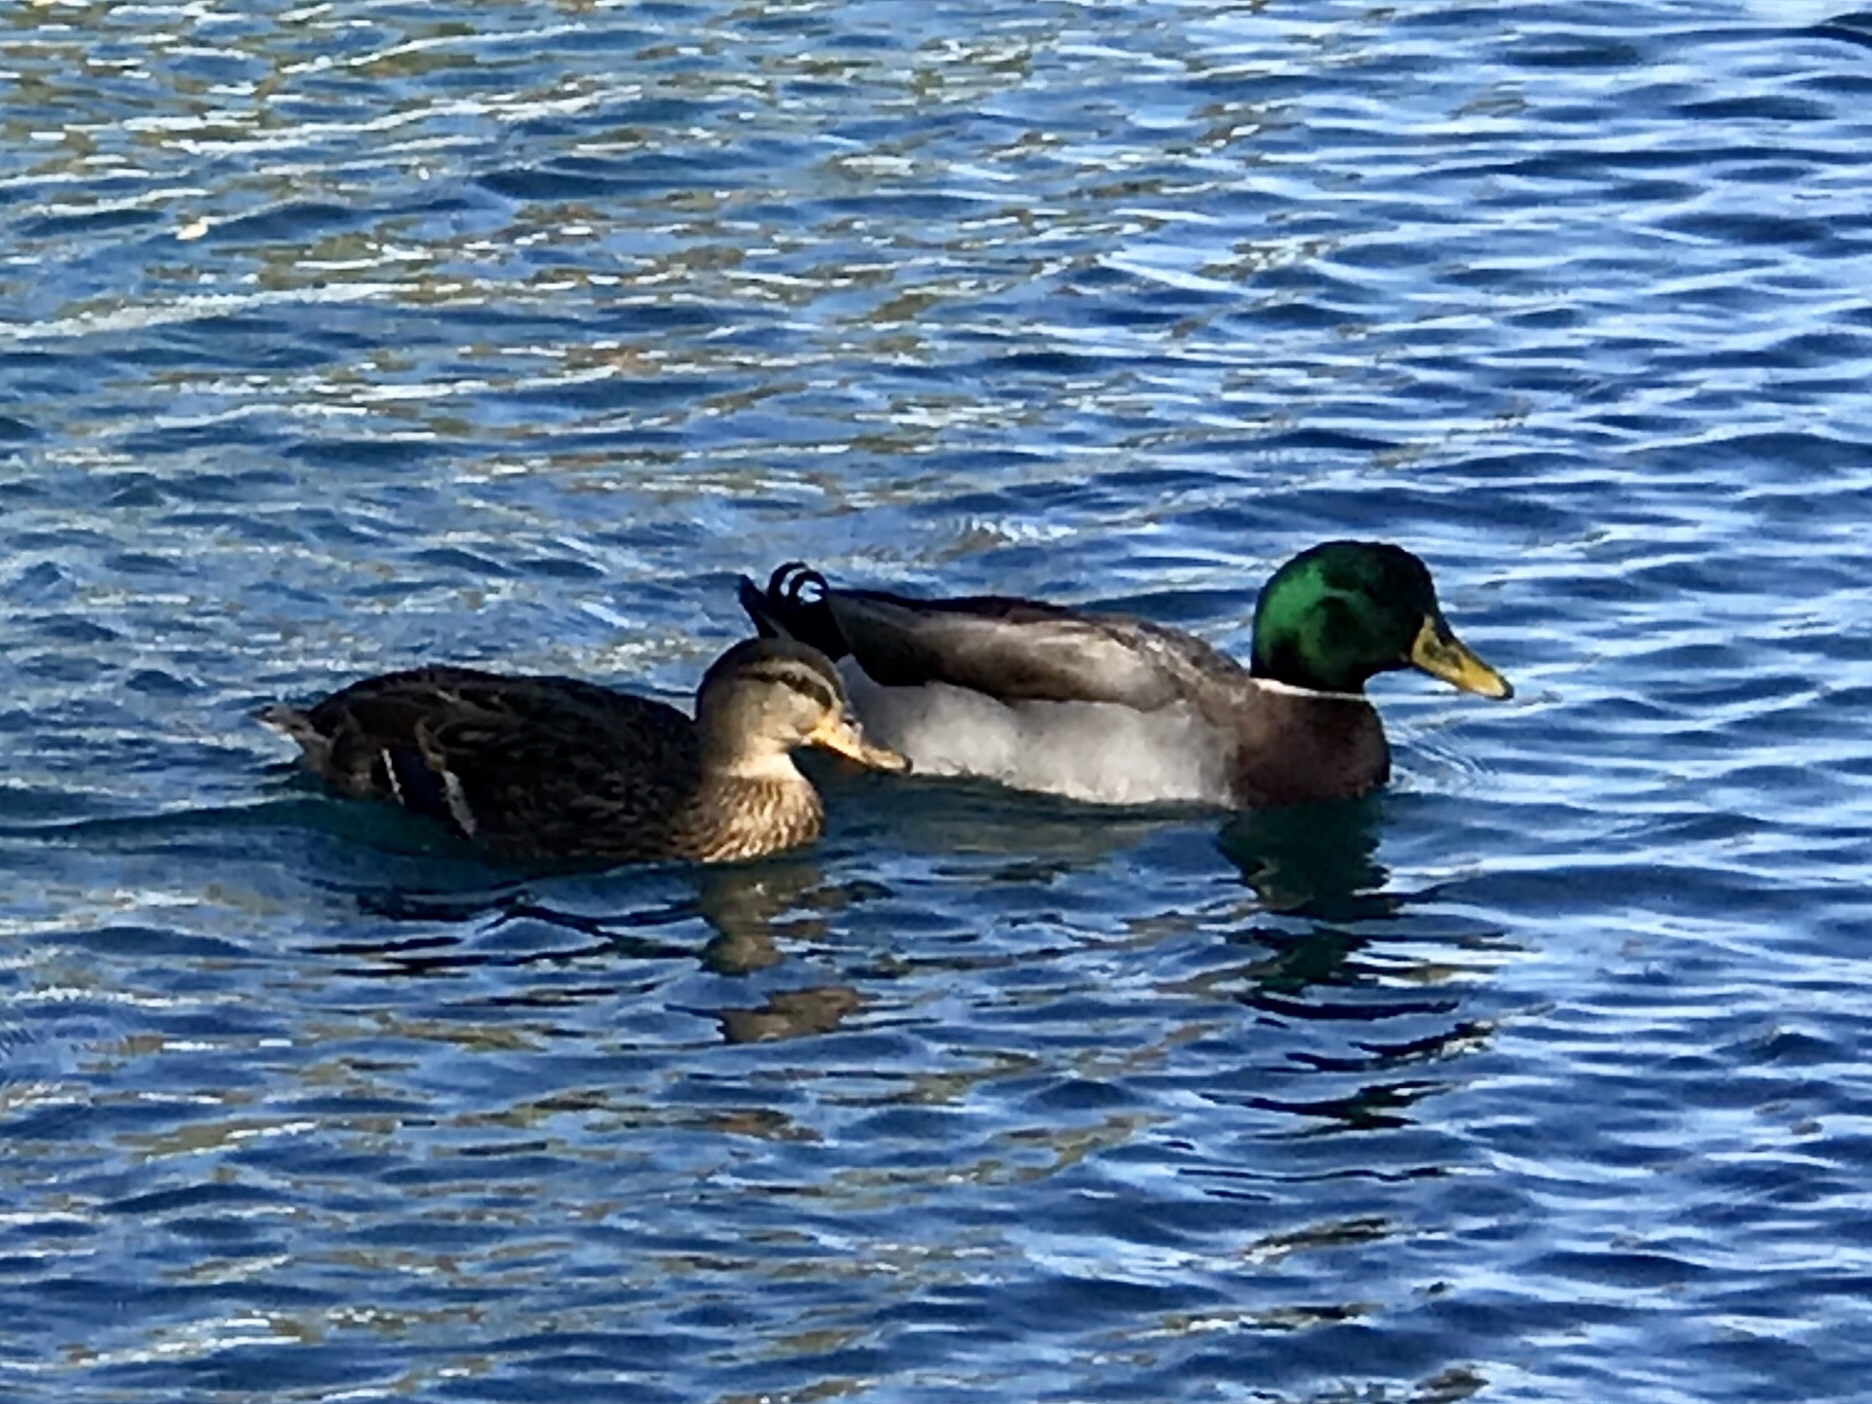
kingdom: Animalia
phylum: Chordata
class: Aves
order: Anseriformes
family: Anatidae
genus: Anas
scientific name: Anas platyrhynchos
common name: Mallard
